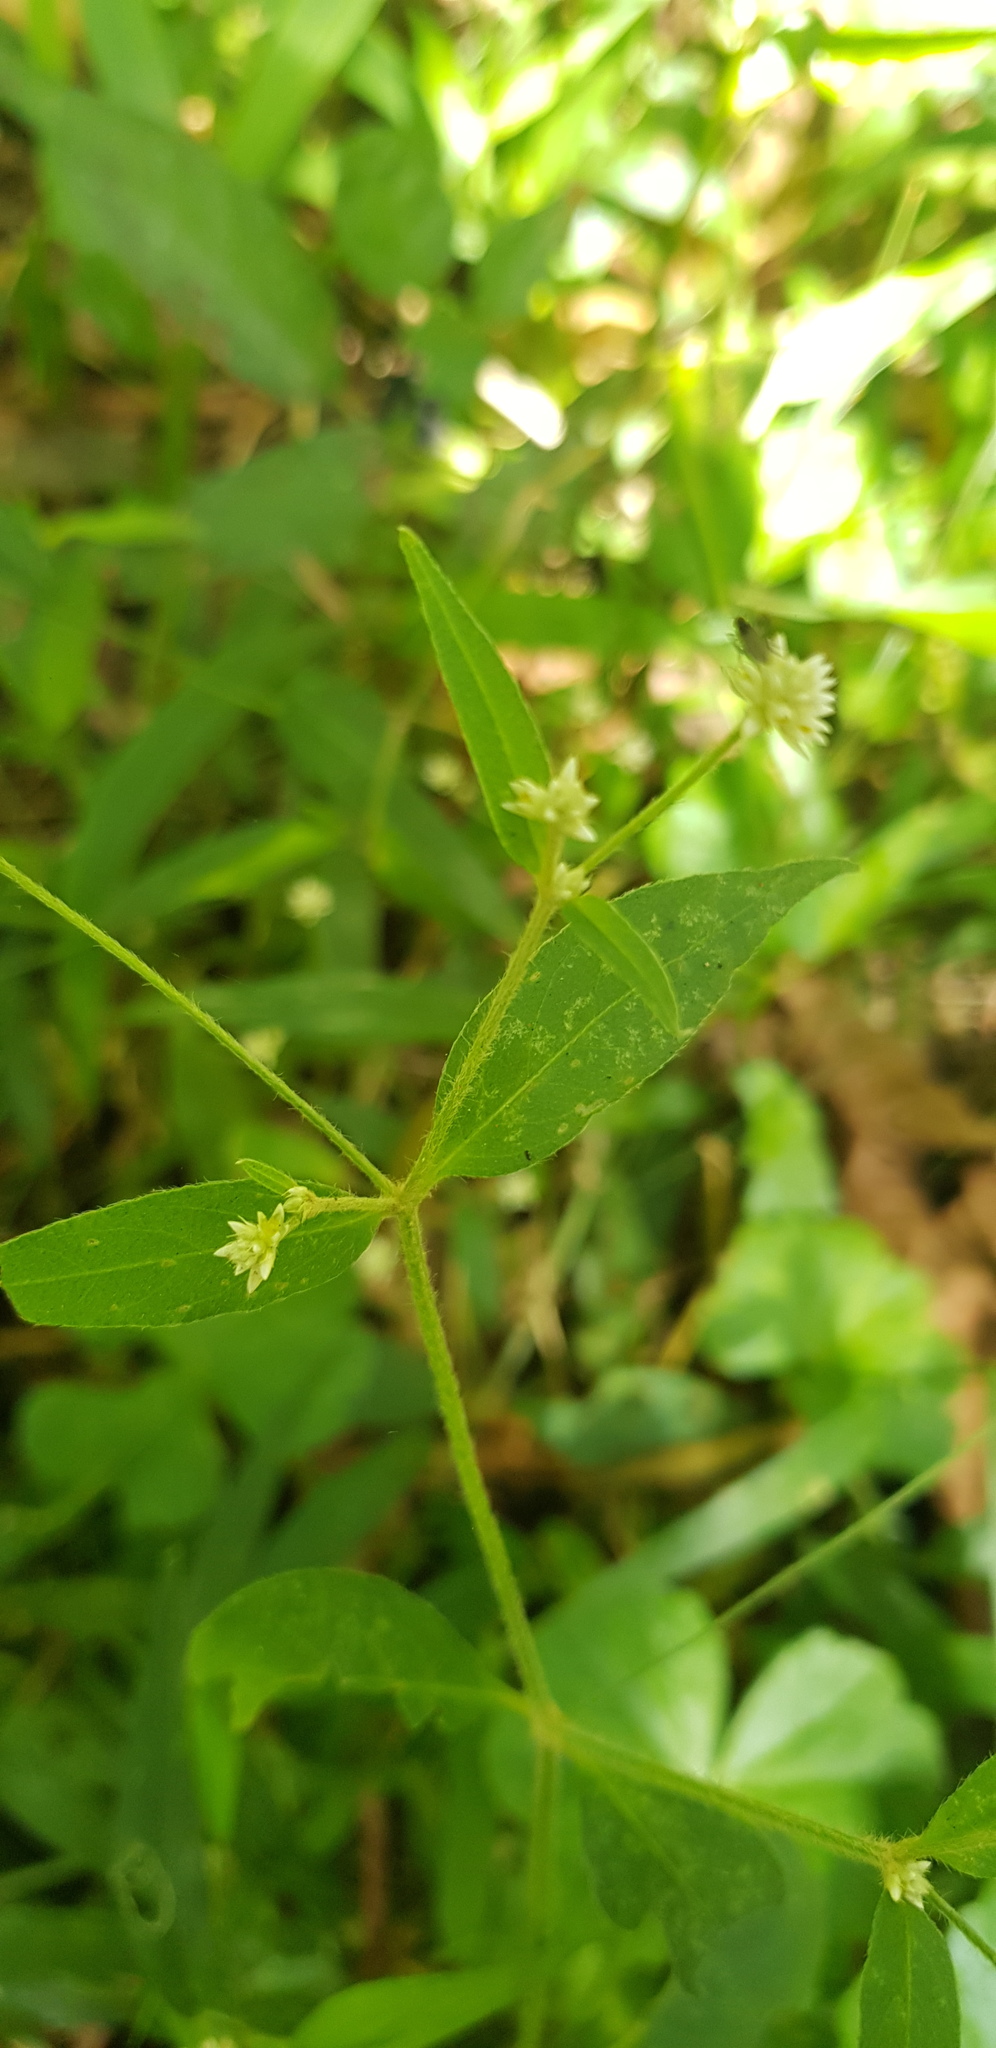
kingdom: Plantae
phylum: Tracheophyta
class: Magnoliopsida
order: Caryophyllales
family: Amaranthaceae
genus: Alternanthera
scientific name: Alternanthera pycnantha
